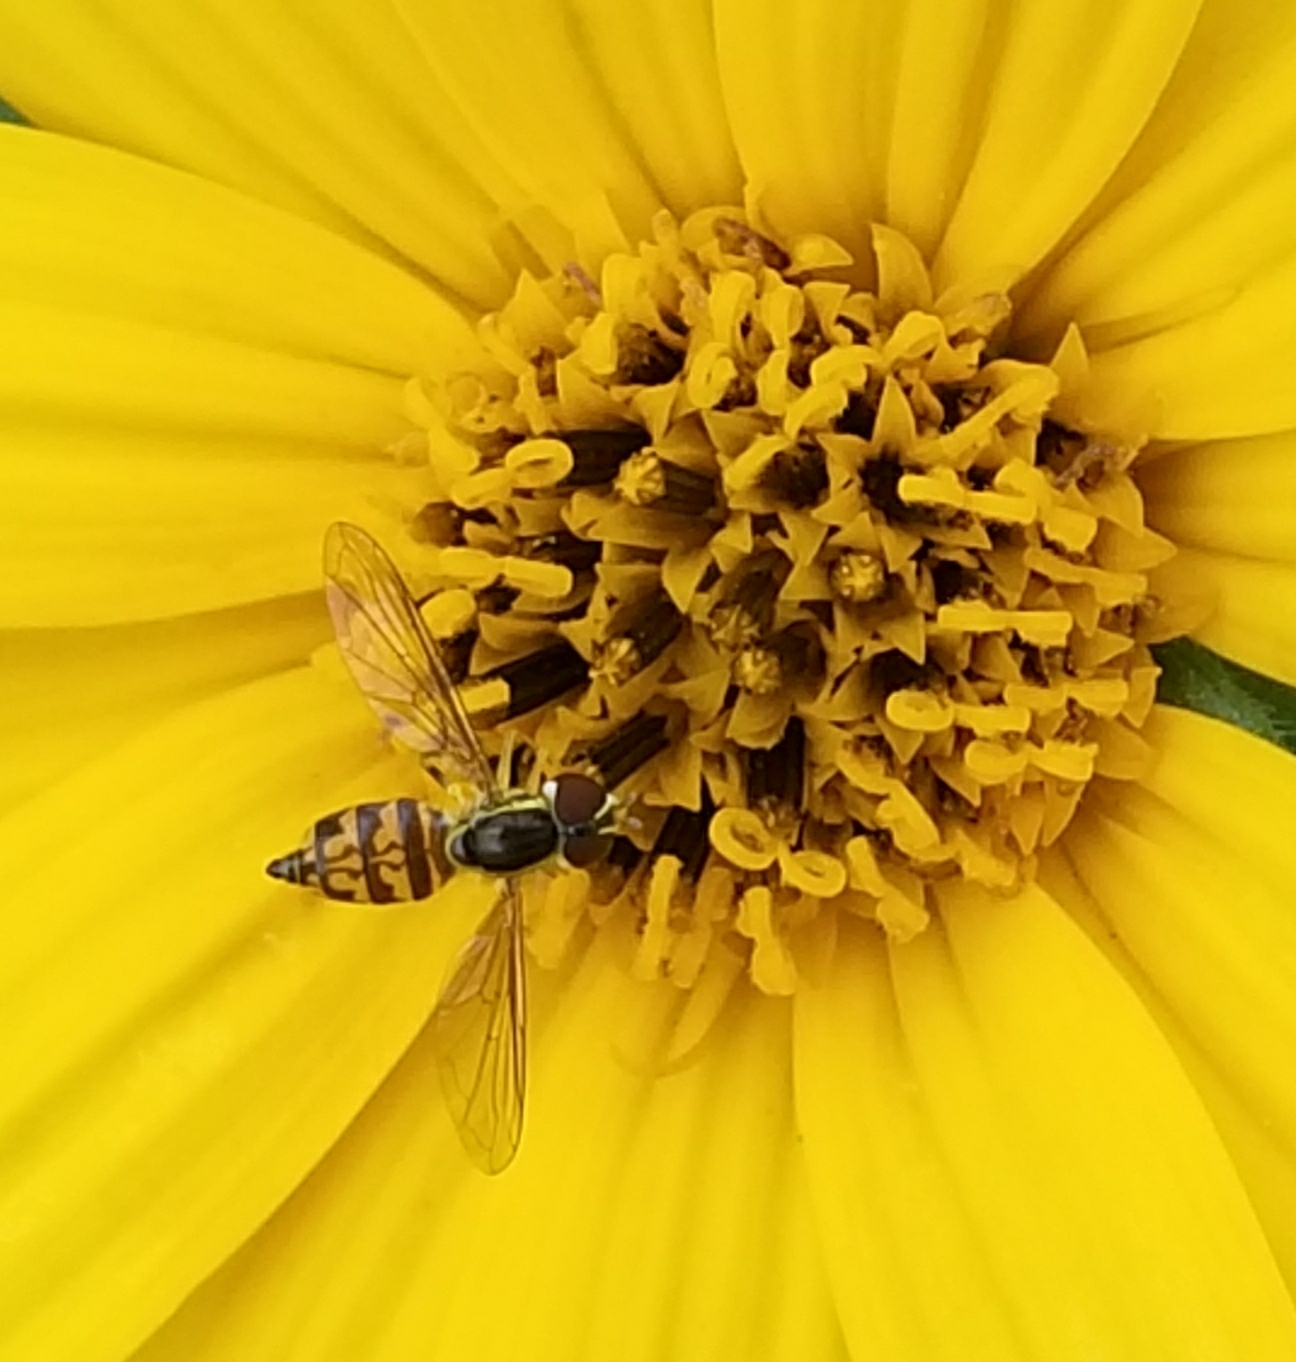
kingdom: Animalia
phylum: Arthropoda
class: Insecta
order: Diptera
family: Syrphidae
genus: Toxomerus
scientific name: Toxomerus geminatus
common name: Eastern calligrapher
